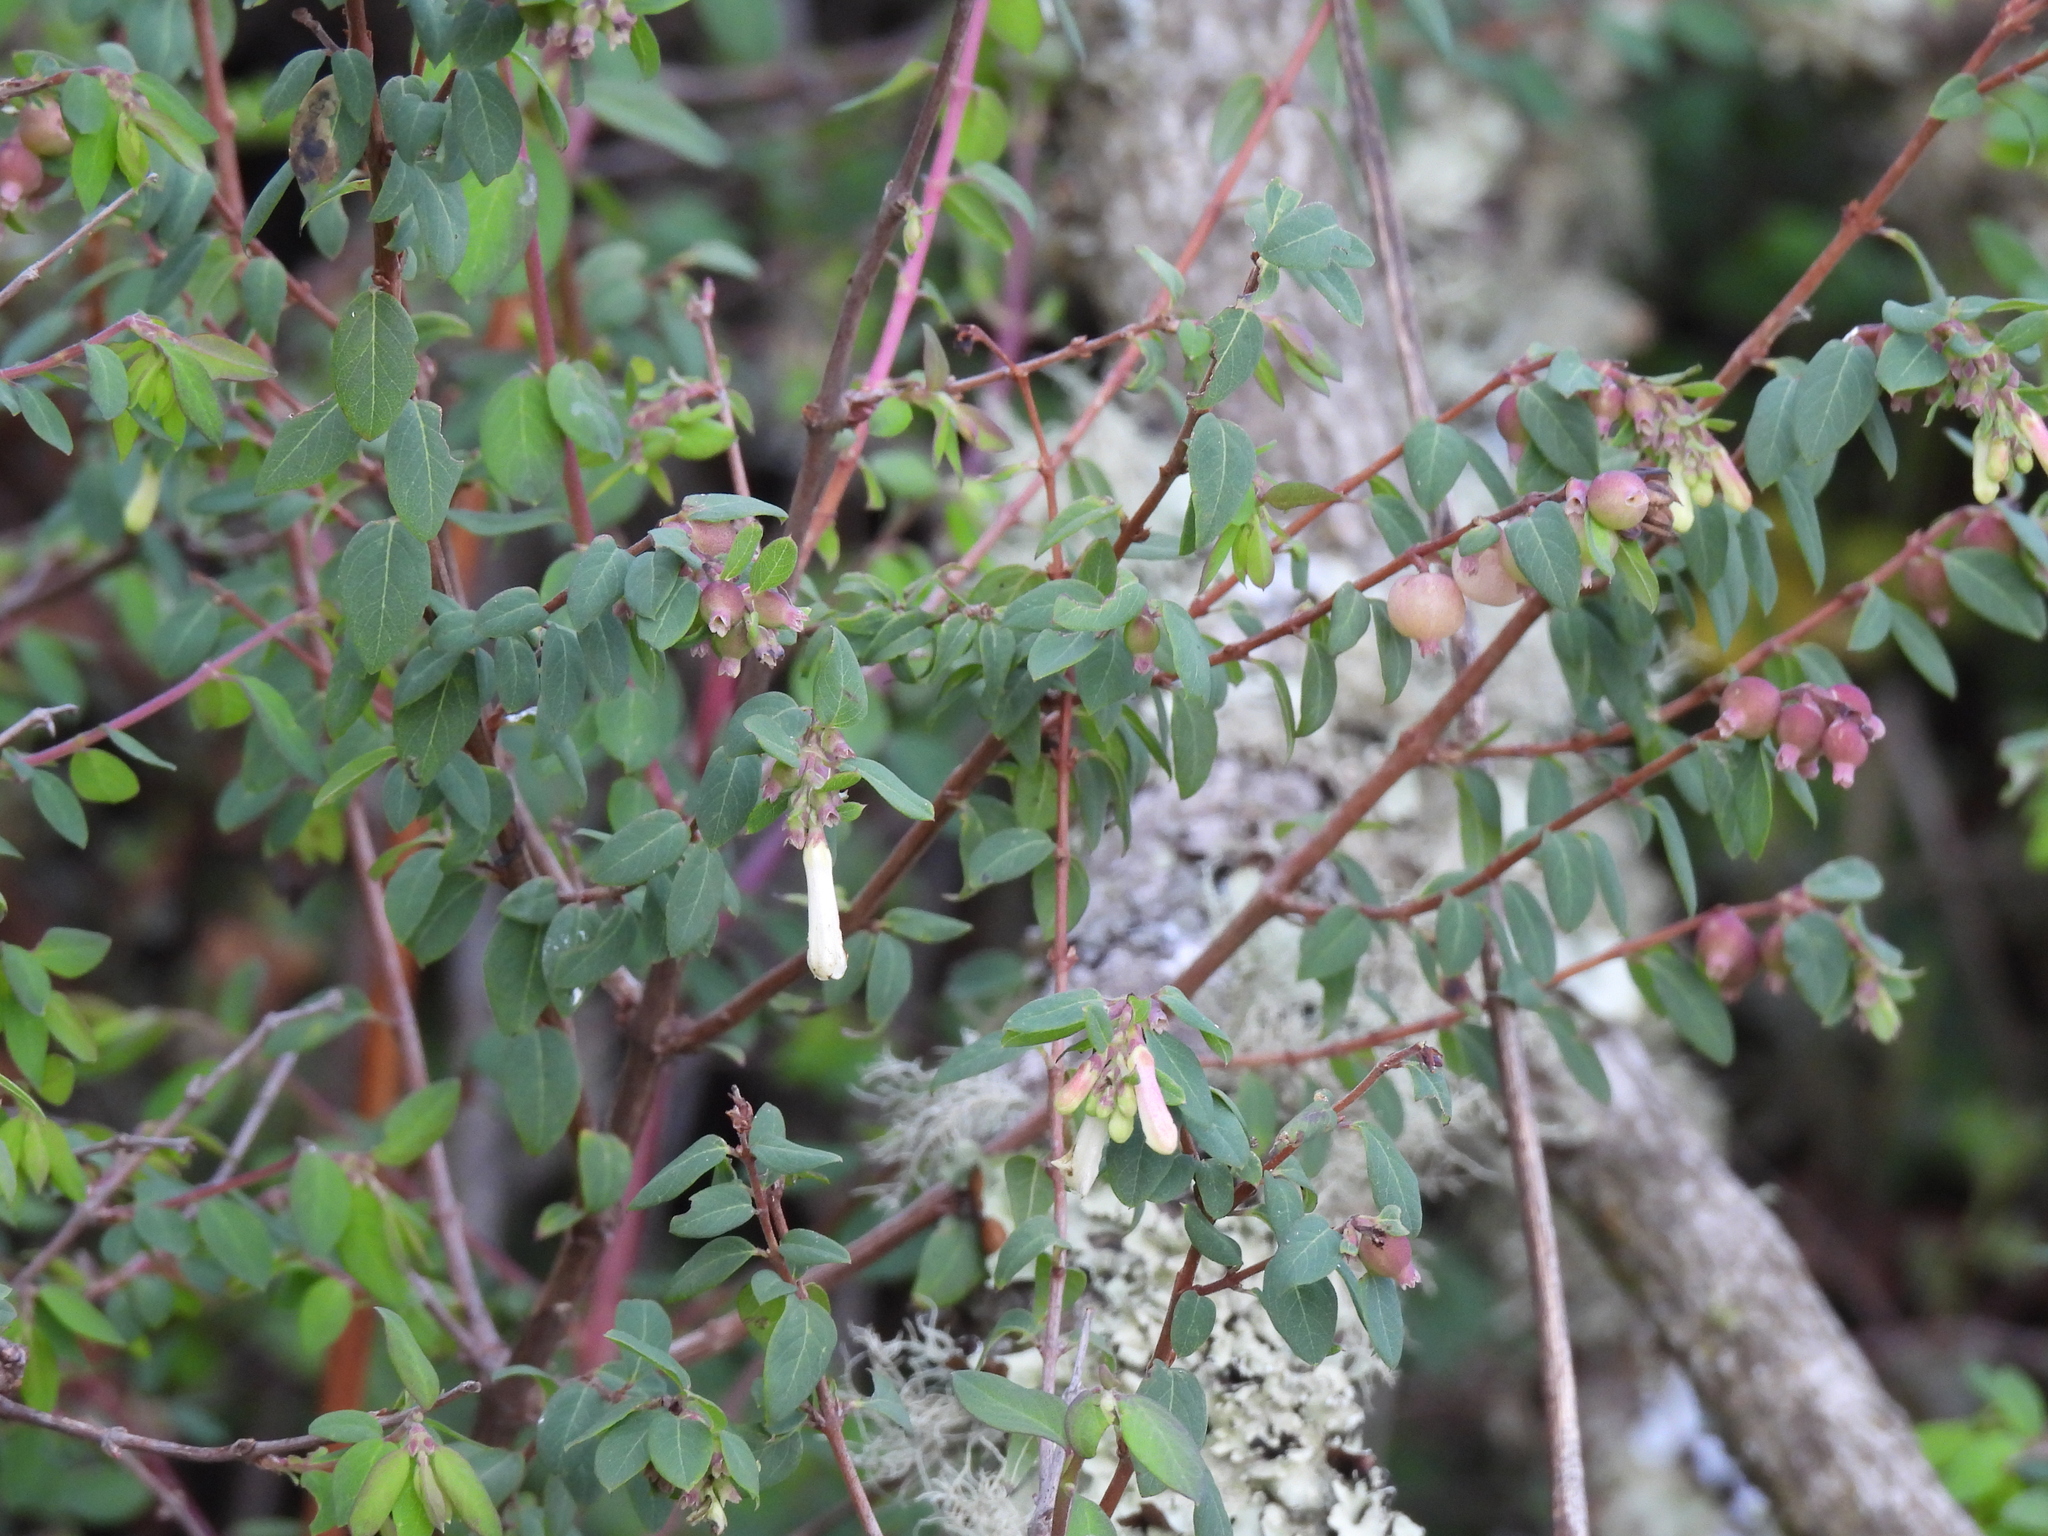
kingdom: Plantae
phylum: Tracheophyta
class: Magnoliopsida
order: Dipsacales
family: Caprifoliaceae
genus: Symphoricarpos
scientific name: Symphoricarpos microphyllus
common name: Small-leaved snowberry
